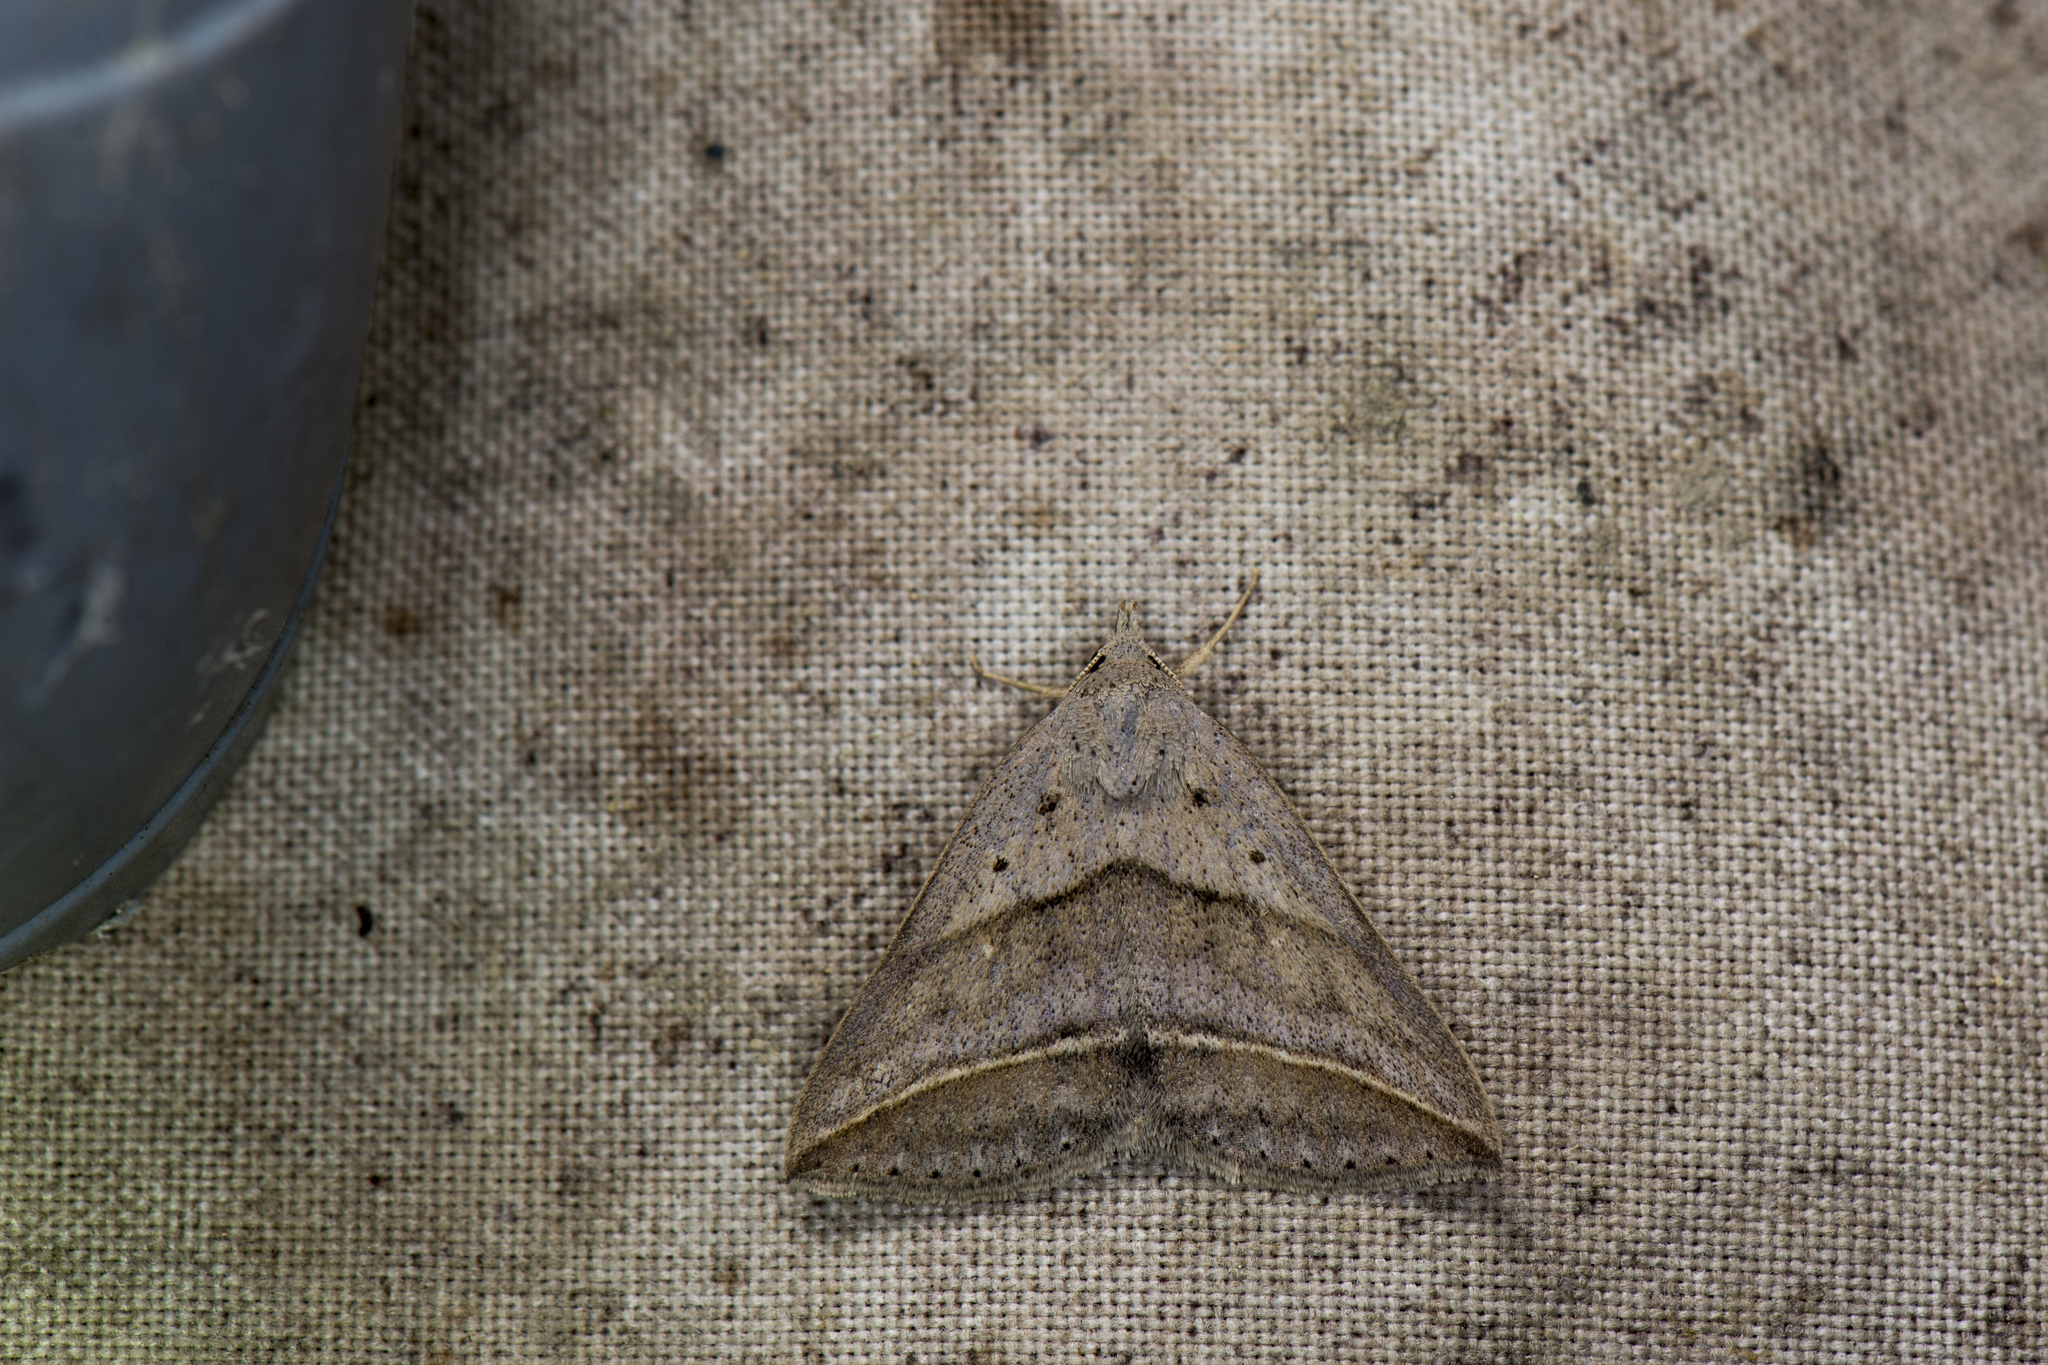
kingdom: Animalia
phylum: Arthropoda
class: Insecta
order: Lepidoptera
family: Erebidae
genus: Blasticorhinus
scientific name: Blasticorhinus bifasciata
